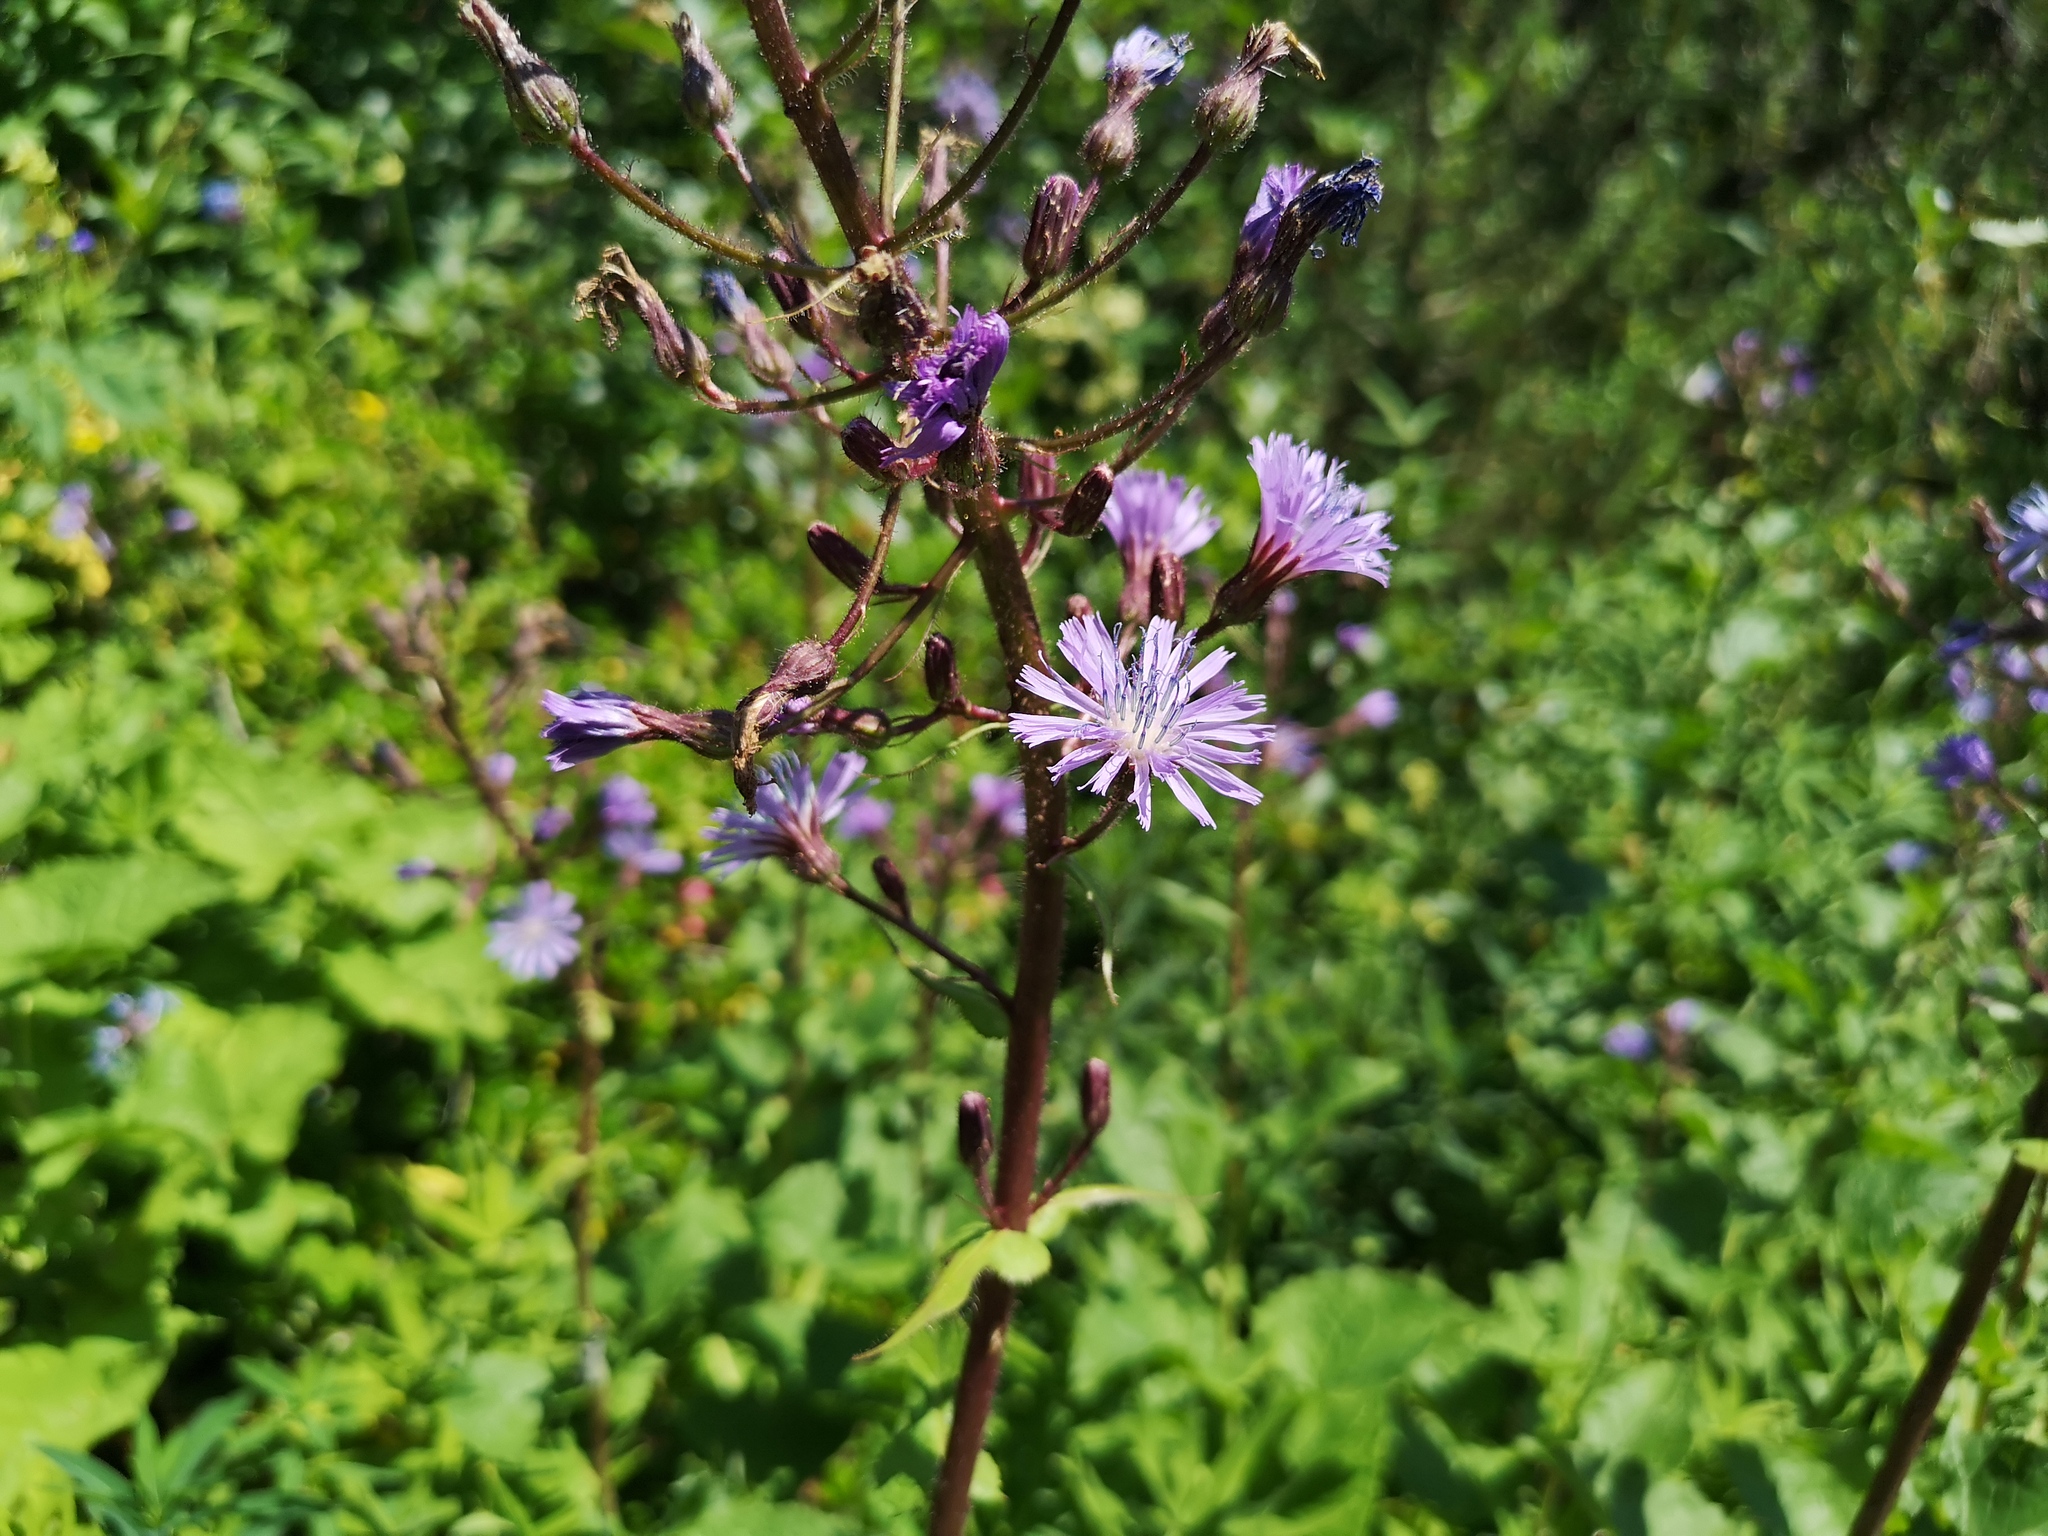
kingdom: Plantae
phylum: Tracheophyta
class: Magnoliopsida
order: Asterales
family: Asteraceae
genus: Cicerbita
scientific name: Cicerbita alpina
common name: Alpine blue-sow-thistle
